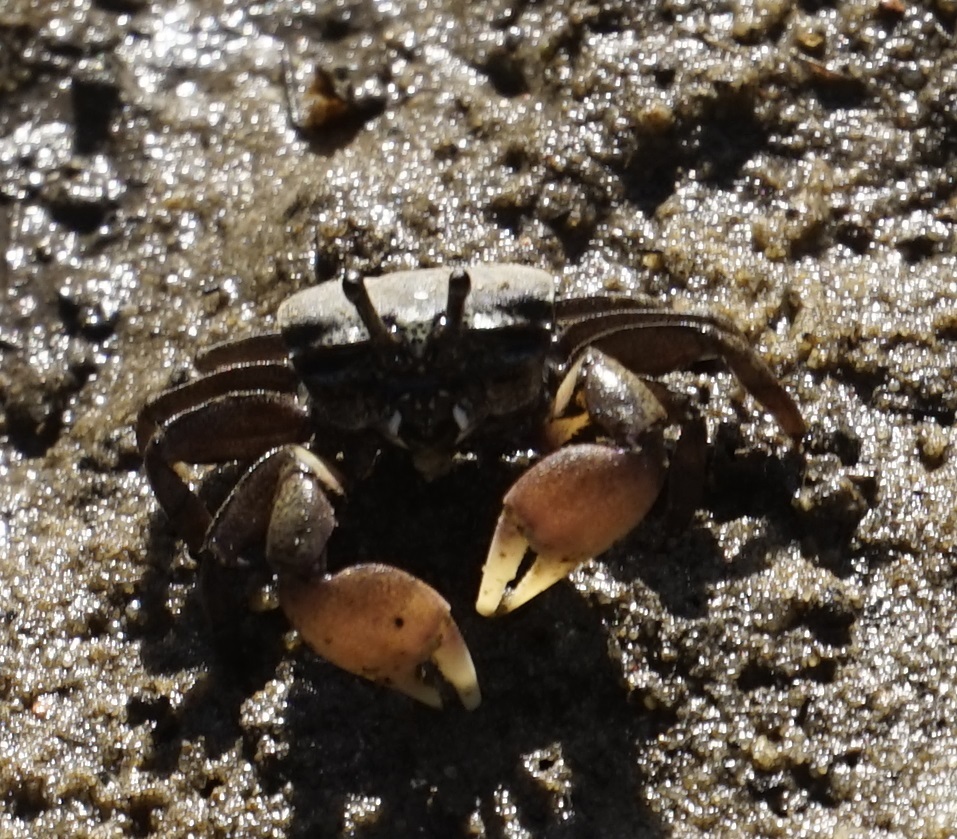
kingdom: Animalia
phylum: Arthropoda
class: Malacostraca
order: Decapoda
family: Heloeciidae
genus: Heloecius
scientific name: Heloecius cordiformis
